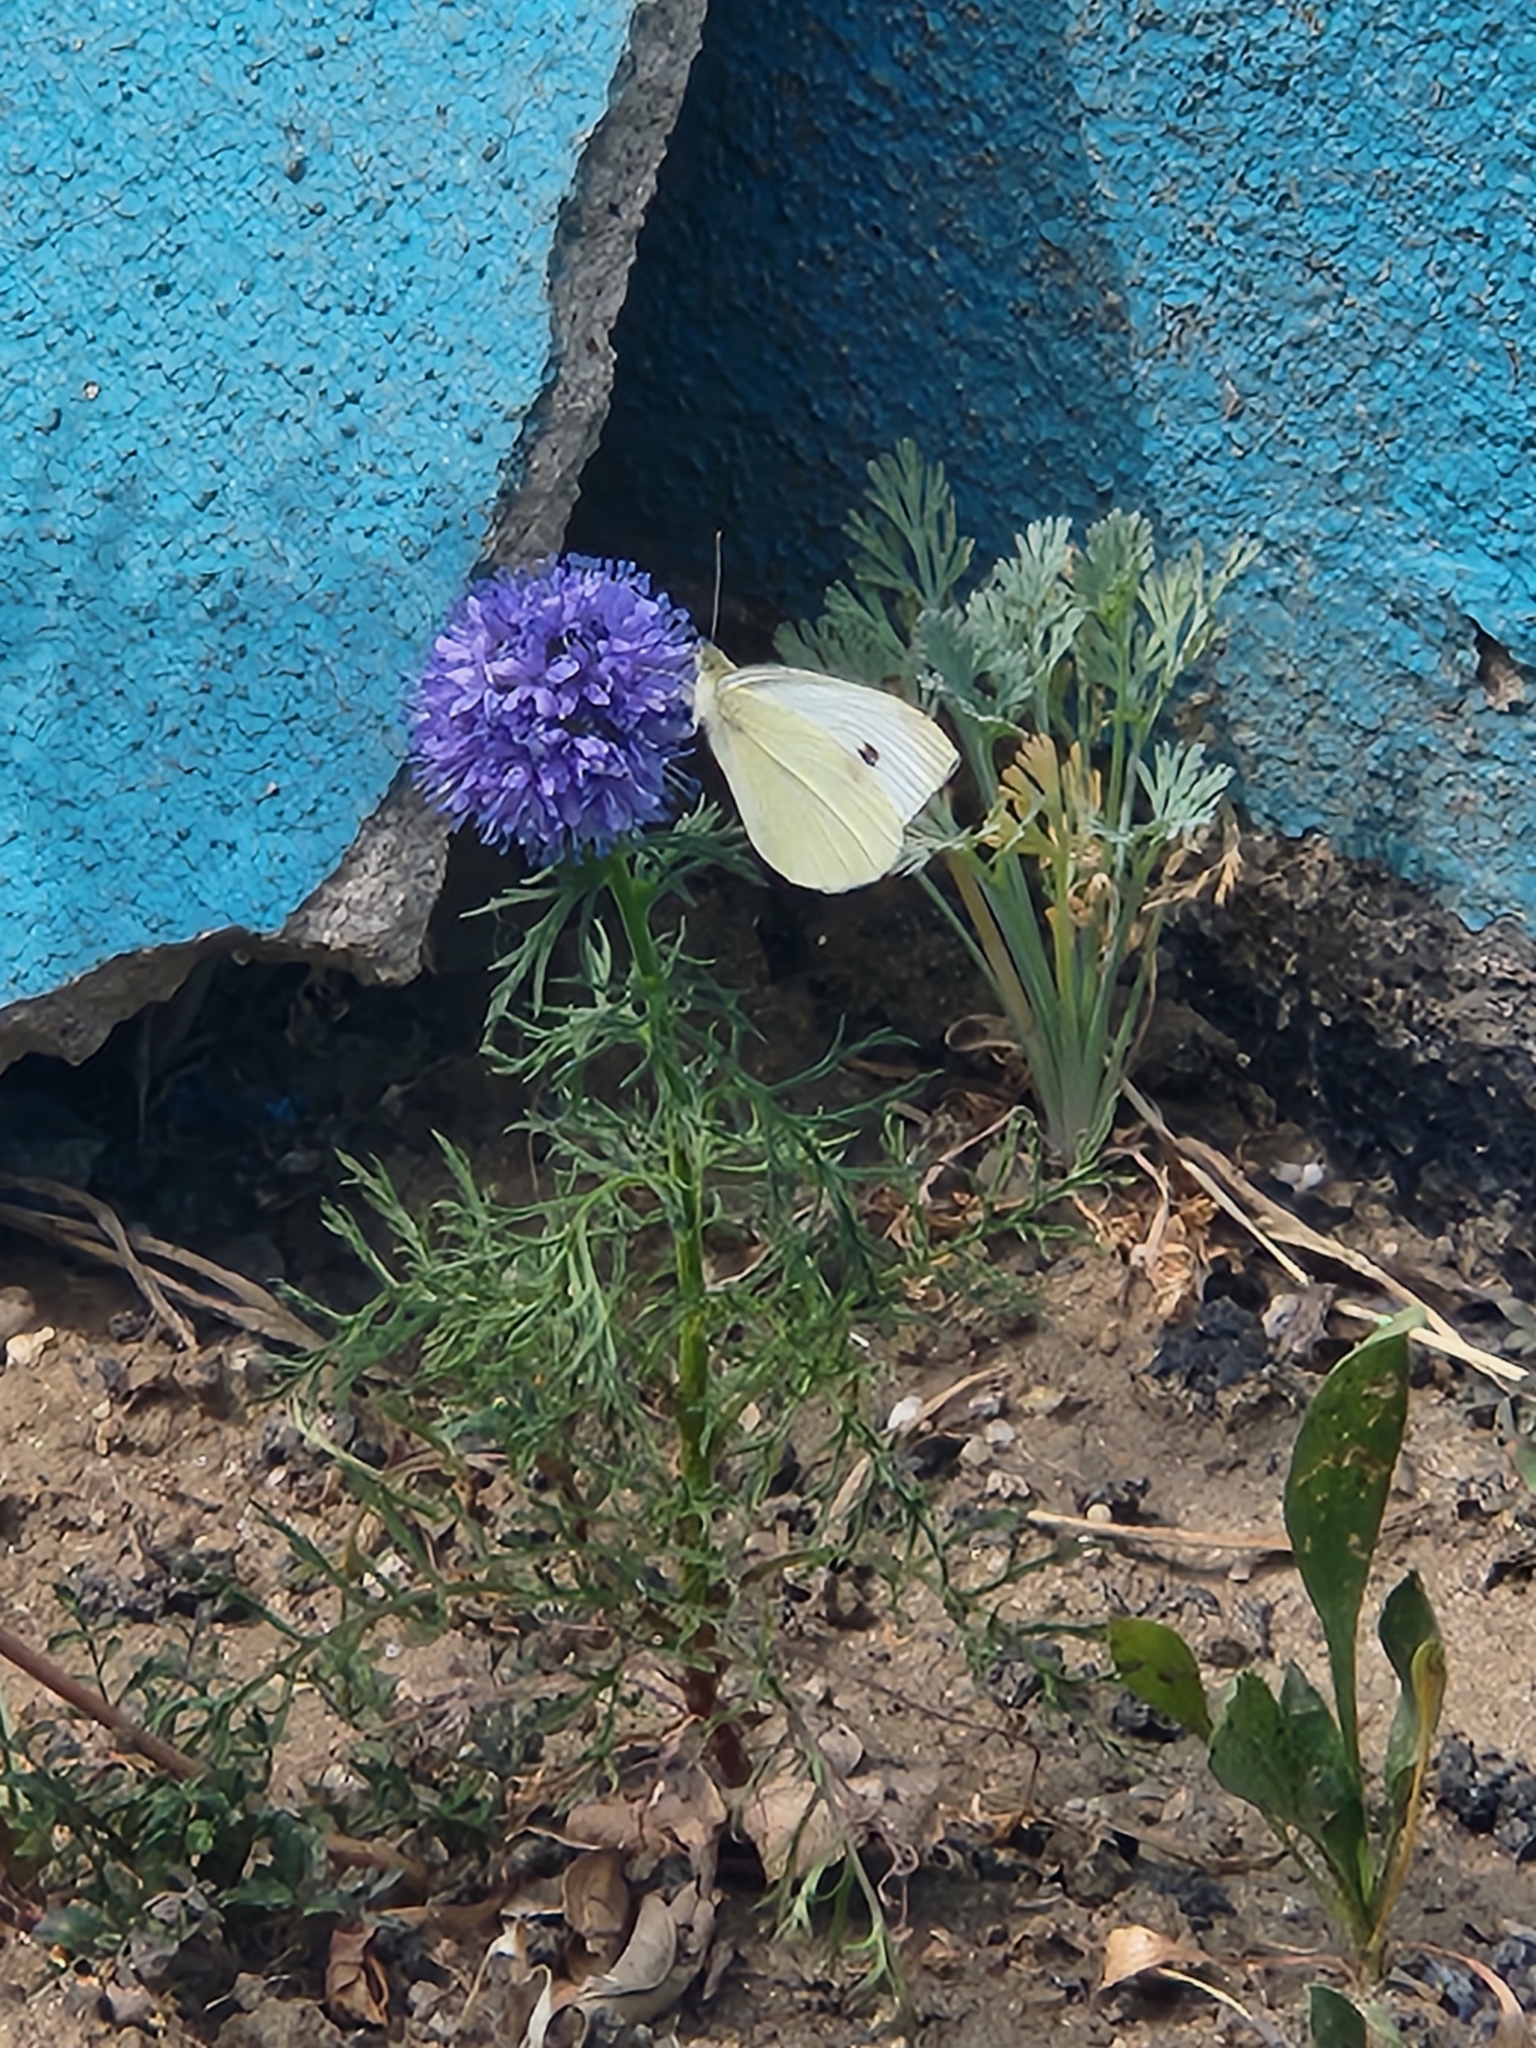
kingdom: Animalia
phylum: Arthropoda
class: Insecta
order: Lepidoptera
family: Pieridae
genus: Pieris
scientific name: Pieris rapae
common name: Small white
